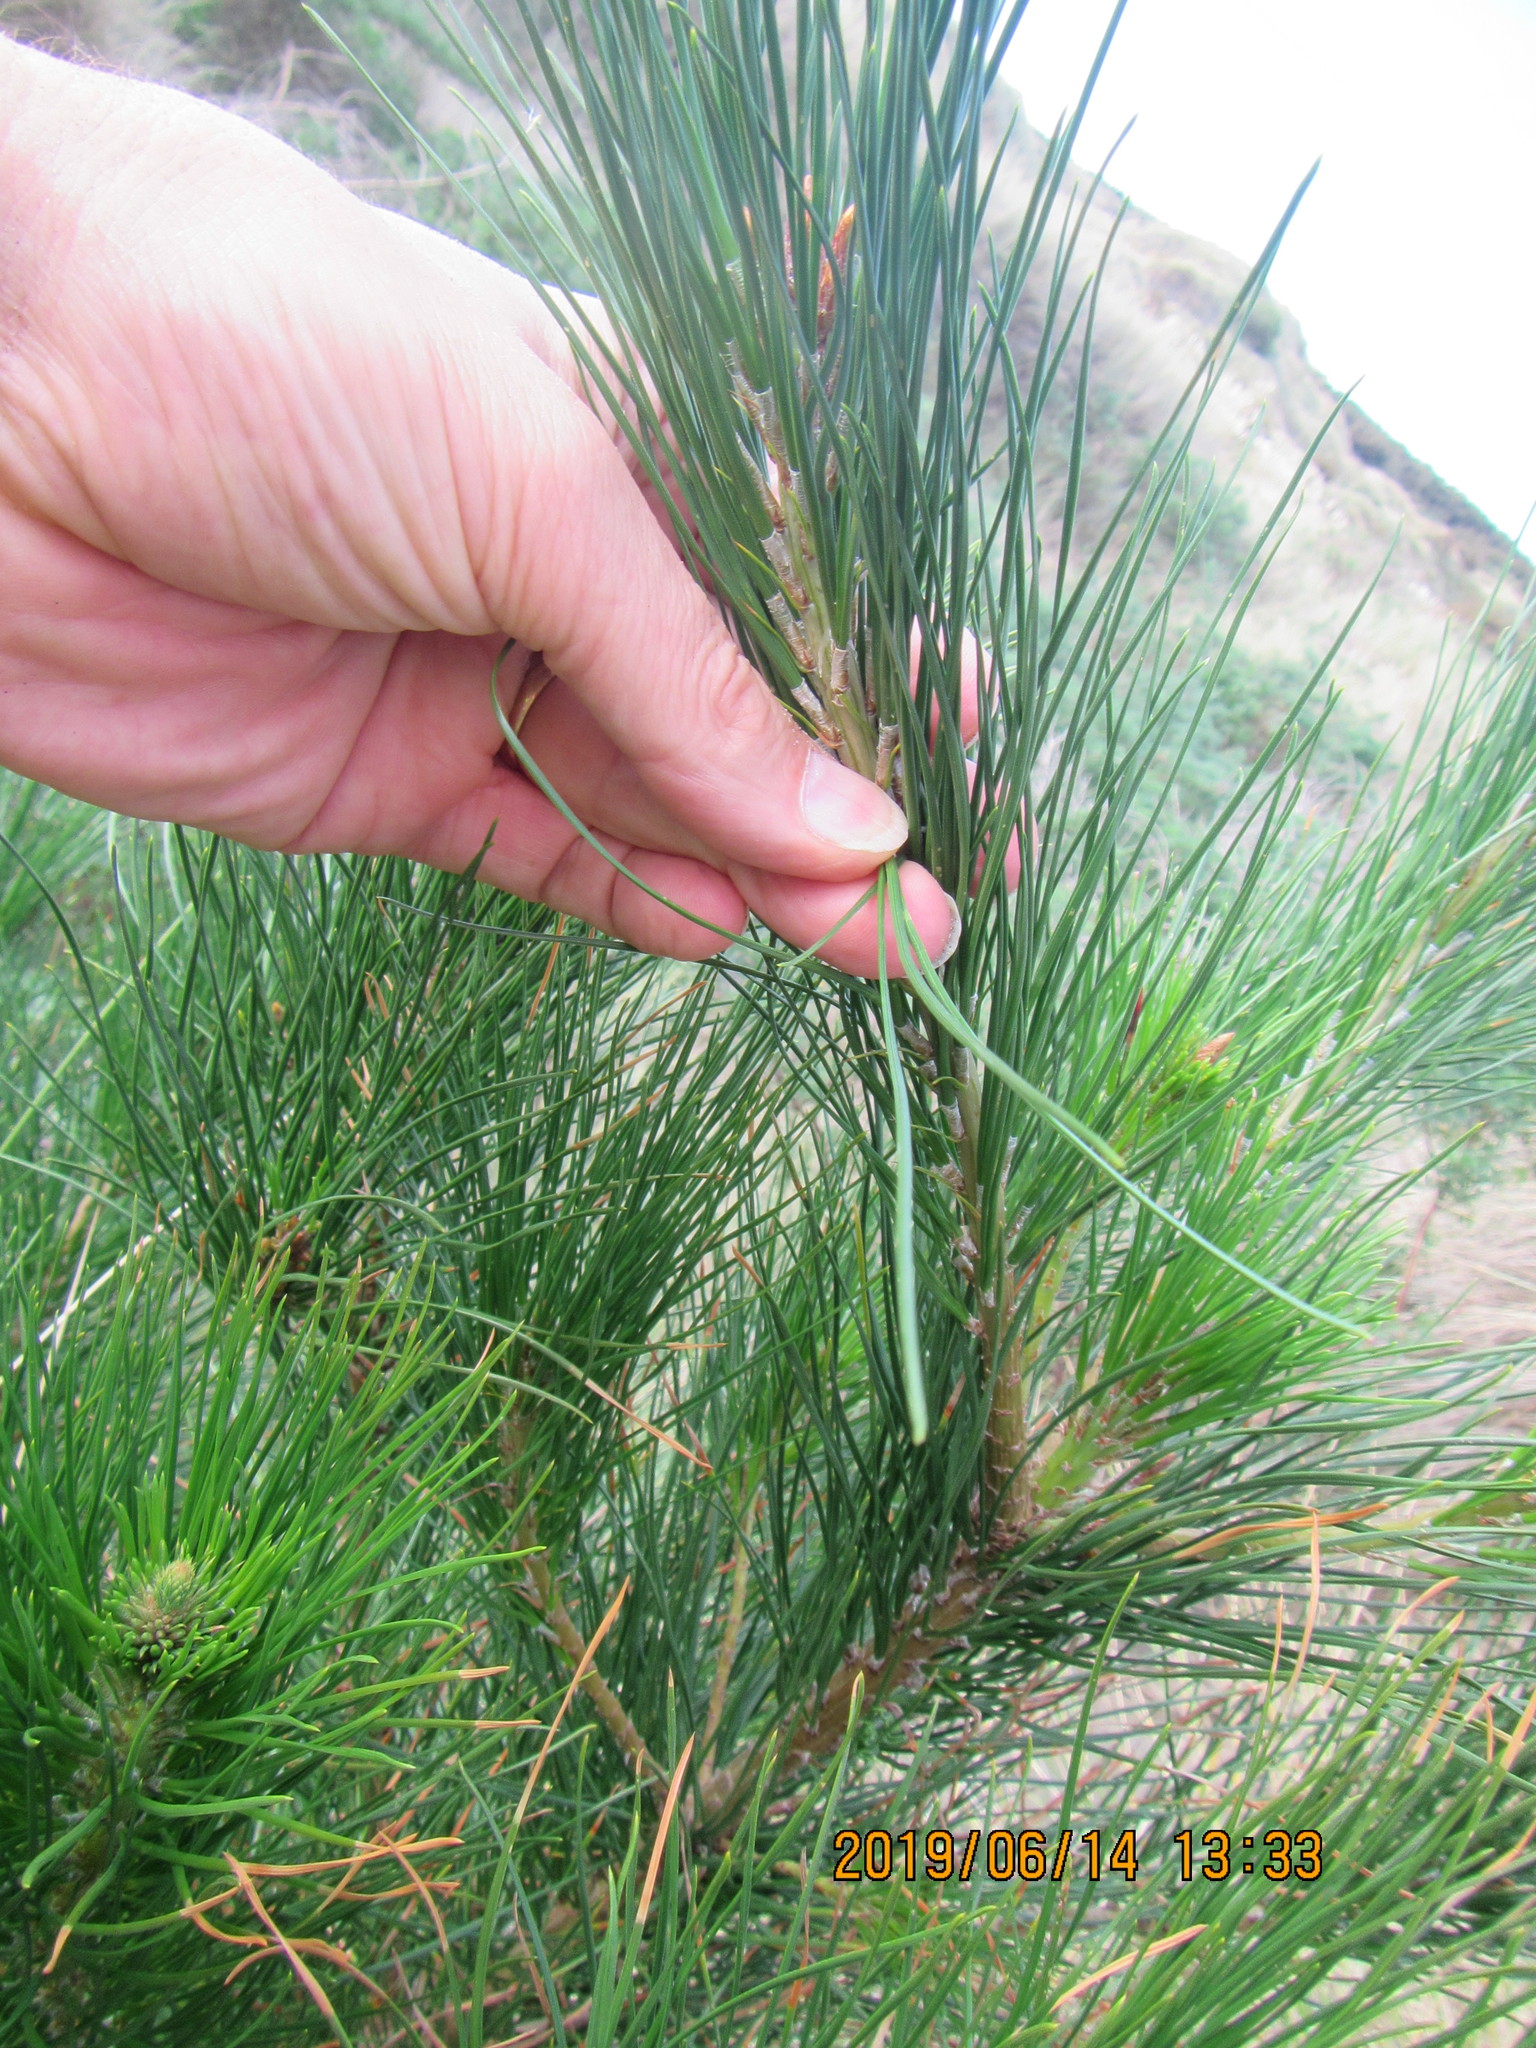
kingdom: Plantae
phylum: Tracheophyta
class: Pinopsida
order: Pinales
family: Pinaceae
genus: Pinus
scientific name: Pinus radiata
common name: Monterey pine
